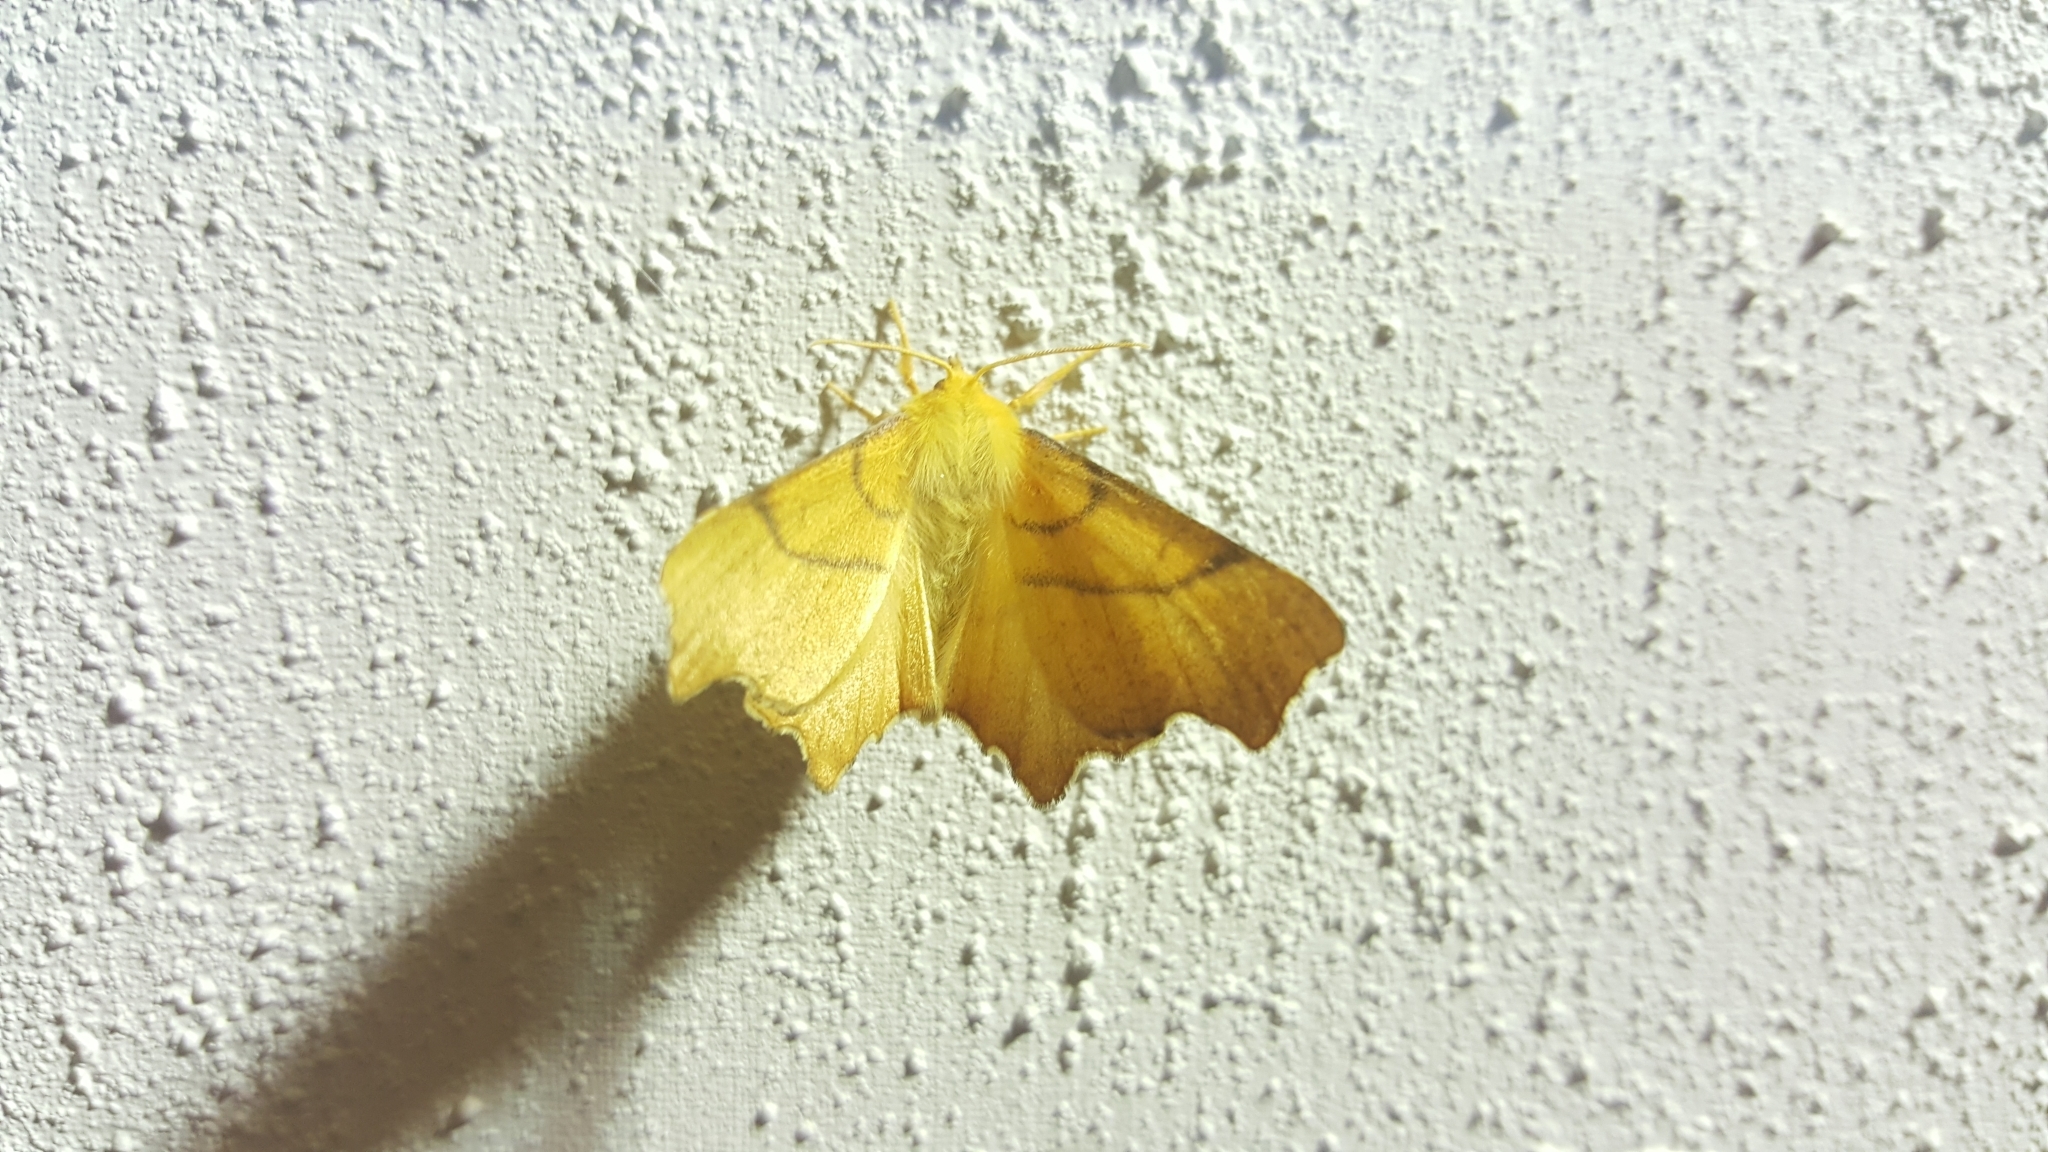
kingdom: Animalia
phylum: Arthropoda
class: Insecta
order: Lepidoptera
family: Geometridae
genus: Ennomos
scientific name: Ennomos erosaria
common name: September thorn
